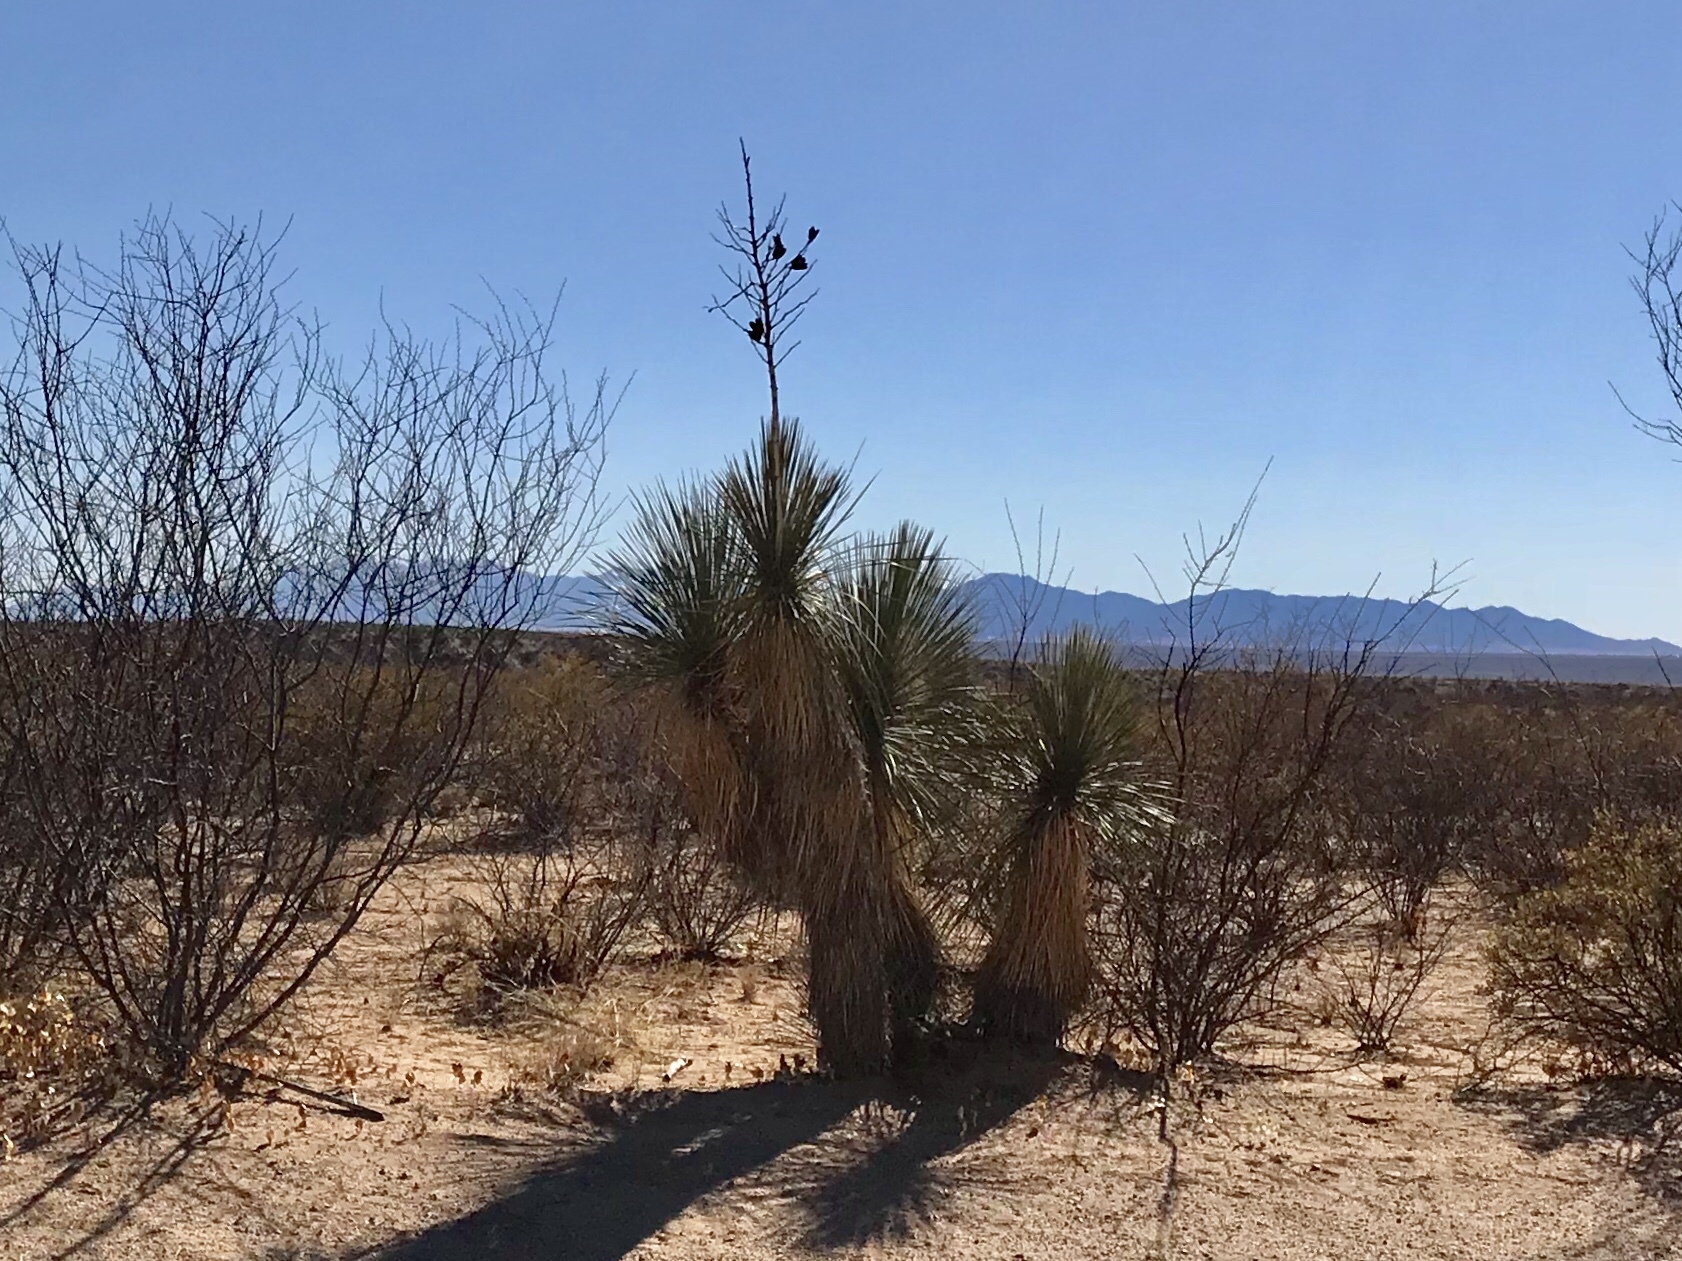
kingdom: Plantae
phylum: Tracheophyta
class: Liliopsida
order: Asparagales
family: Asparagaceae
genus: Yucca
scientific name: Yucca elata
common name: Palmella
